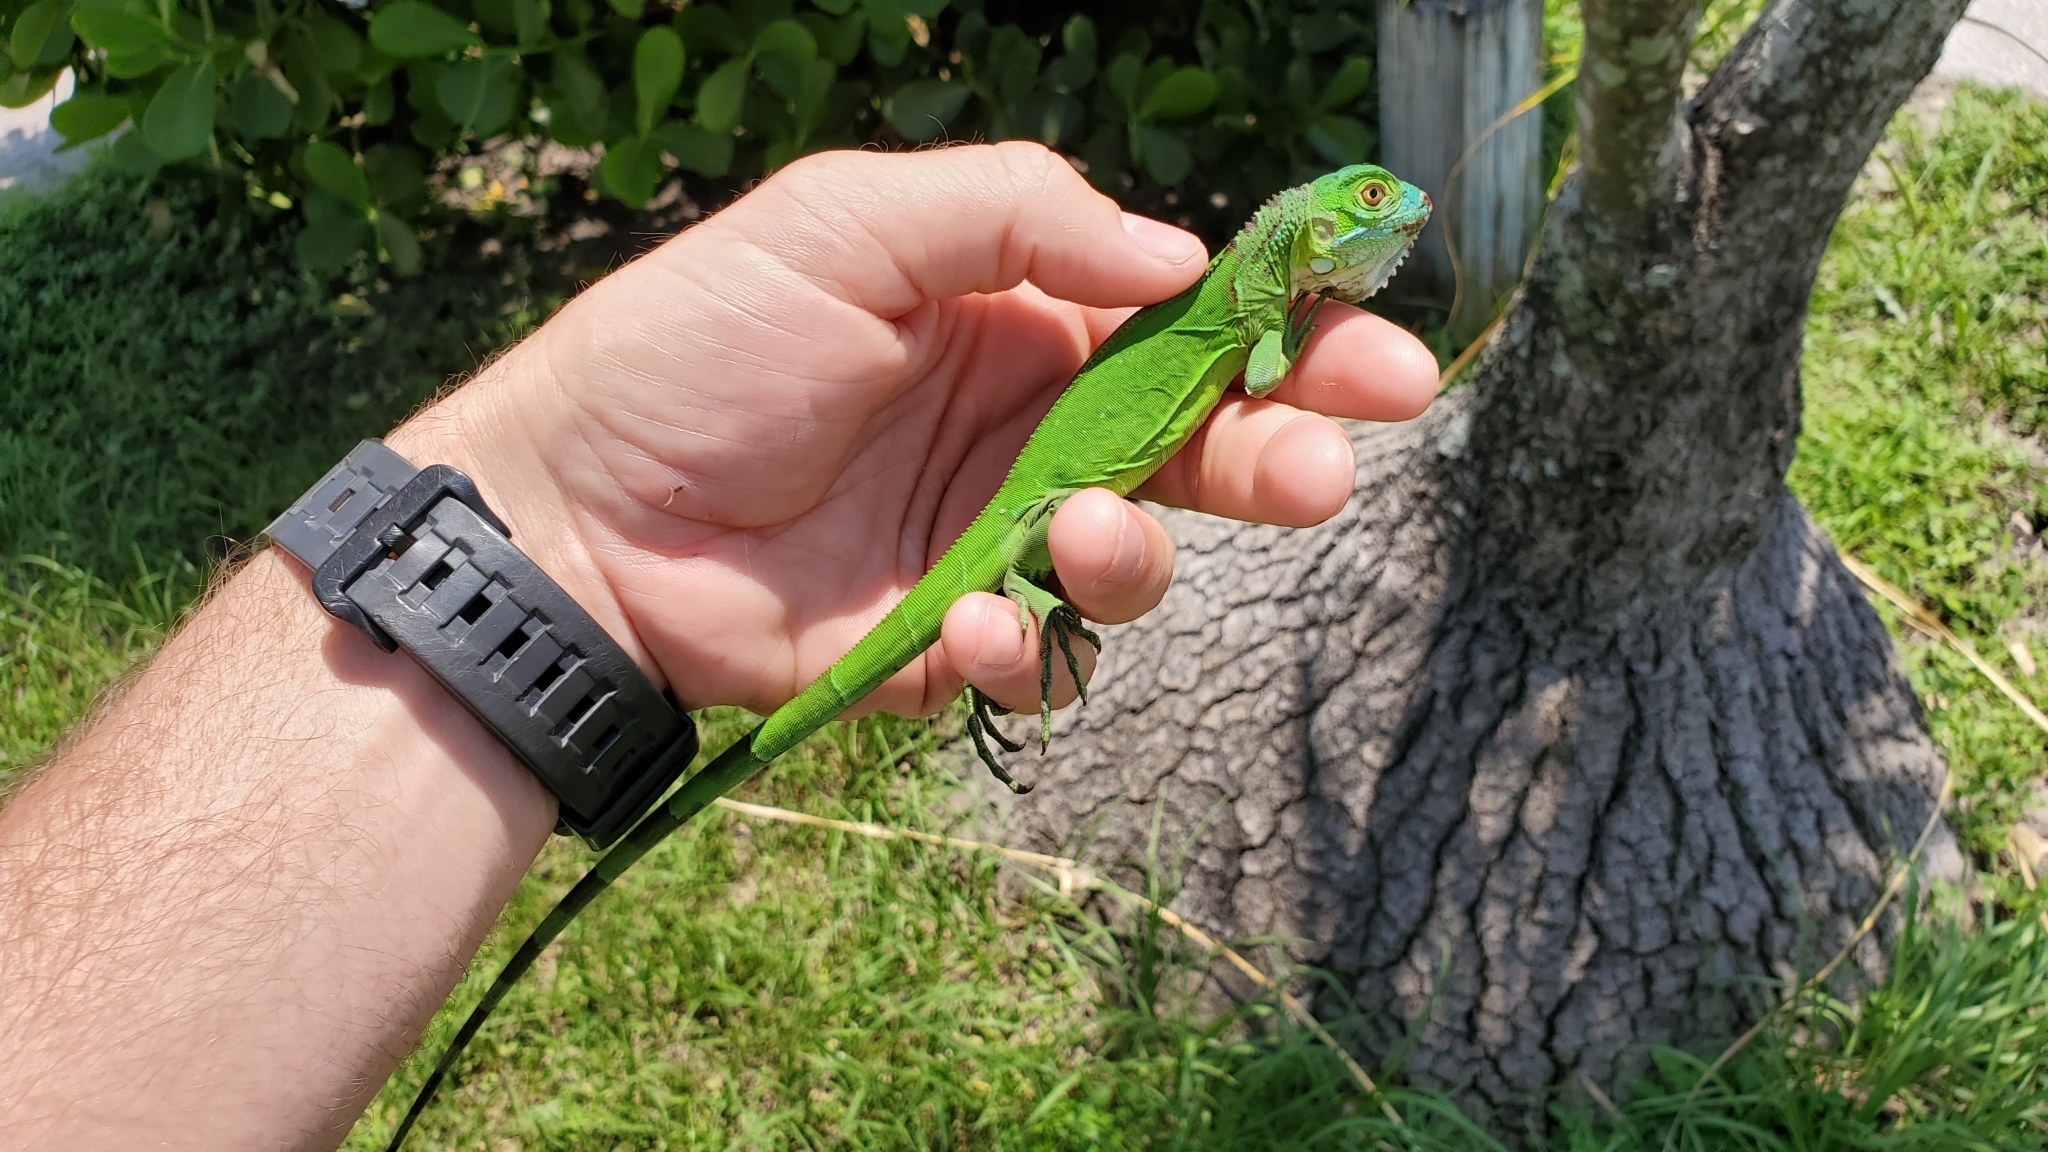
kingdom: Animalia
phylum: Chordata
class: Squamata
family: Iguanidae
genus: Iguana
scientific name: Iguana iguana
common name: Green iguana
